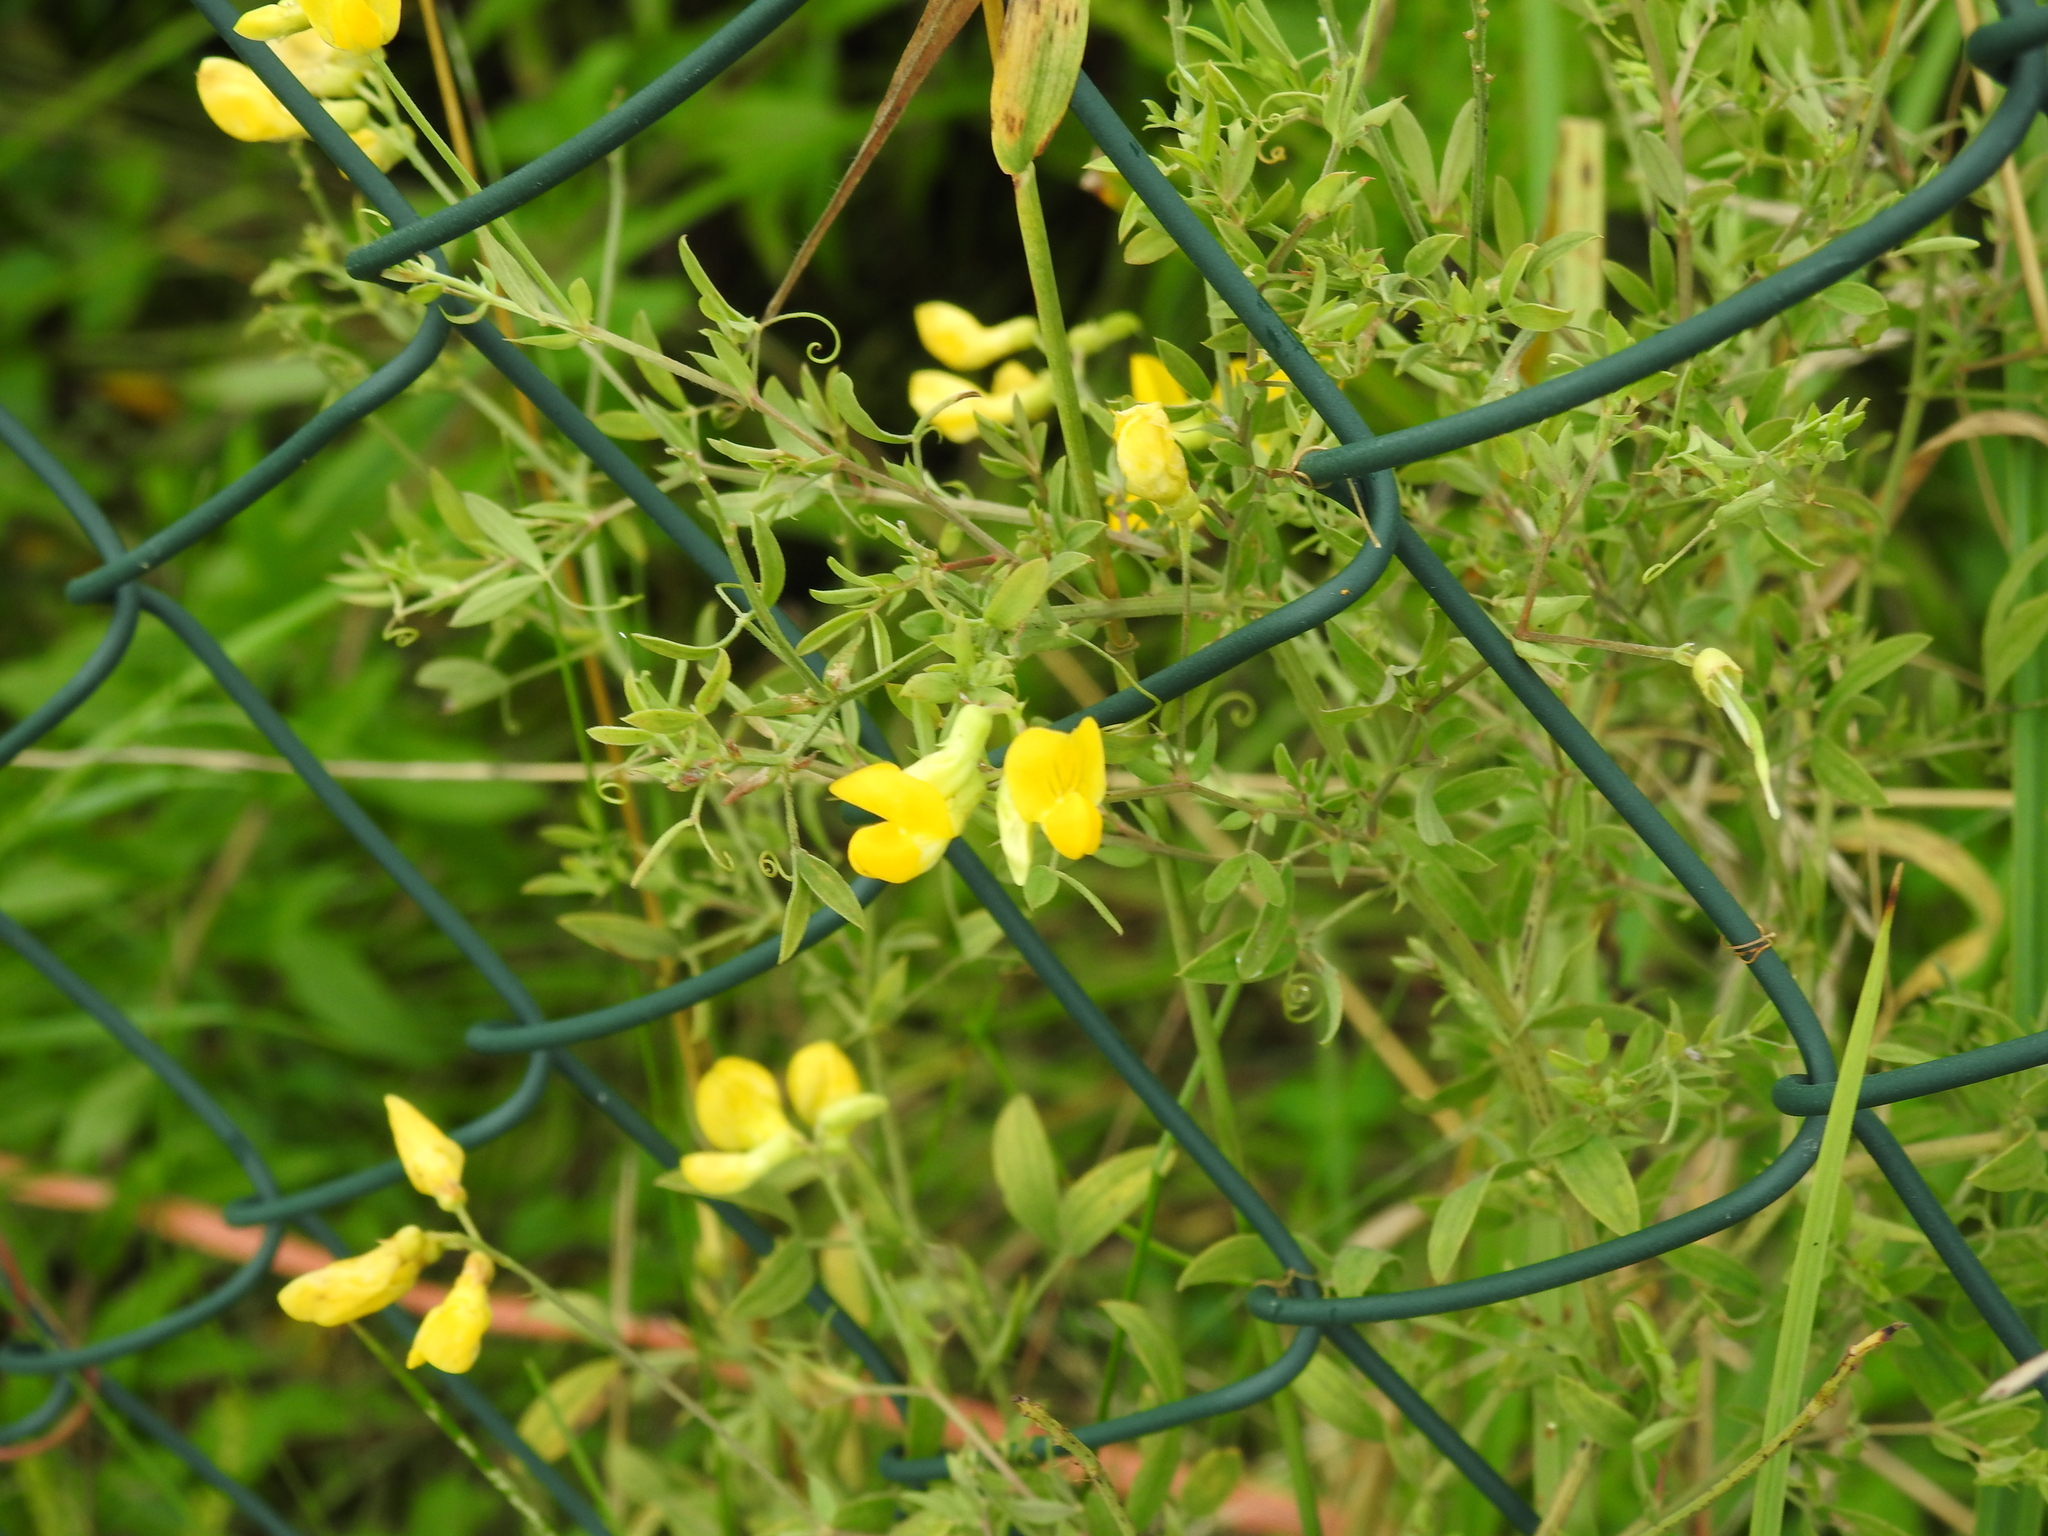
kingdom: Plantae
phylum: Tracheophyta
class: Magnoliopsida
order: Fabales
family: Fabaceae
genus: Lathyrus
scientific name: Lathyrus pratensis
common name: Meadow vetchling
